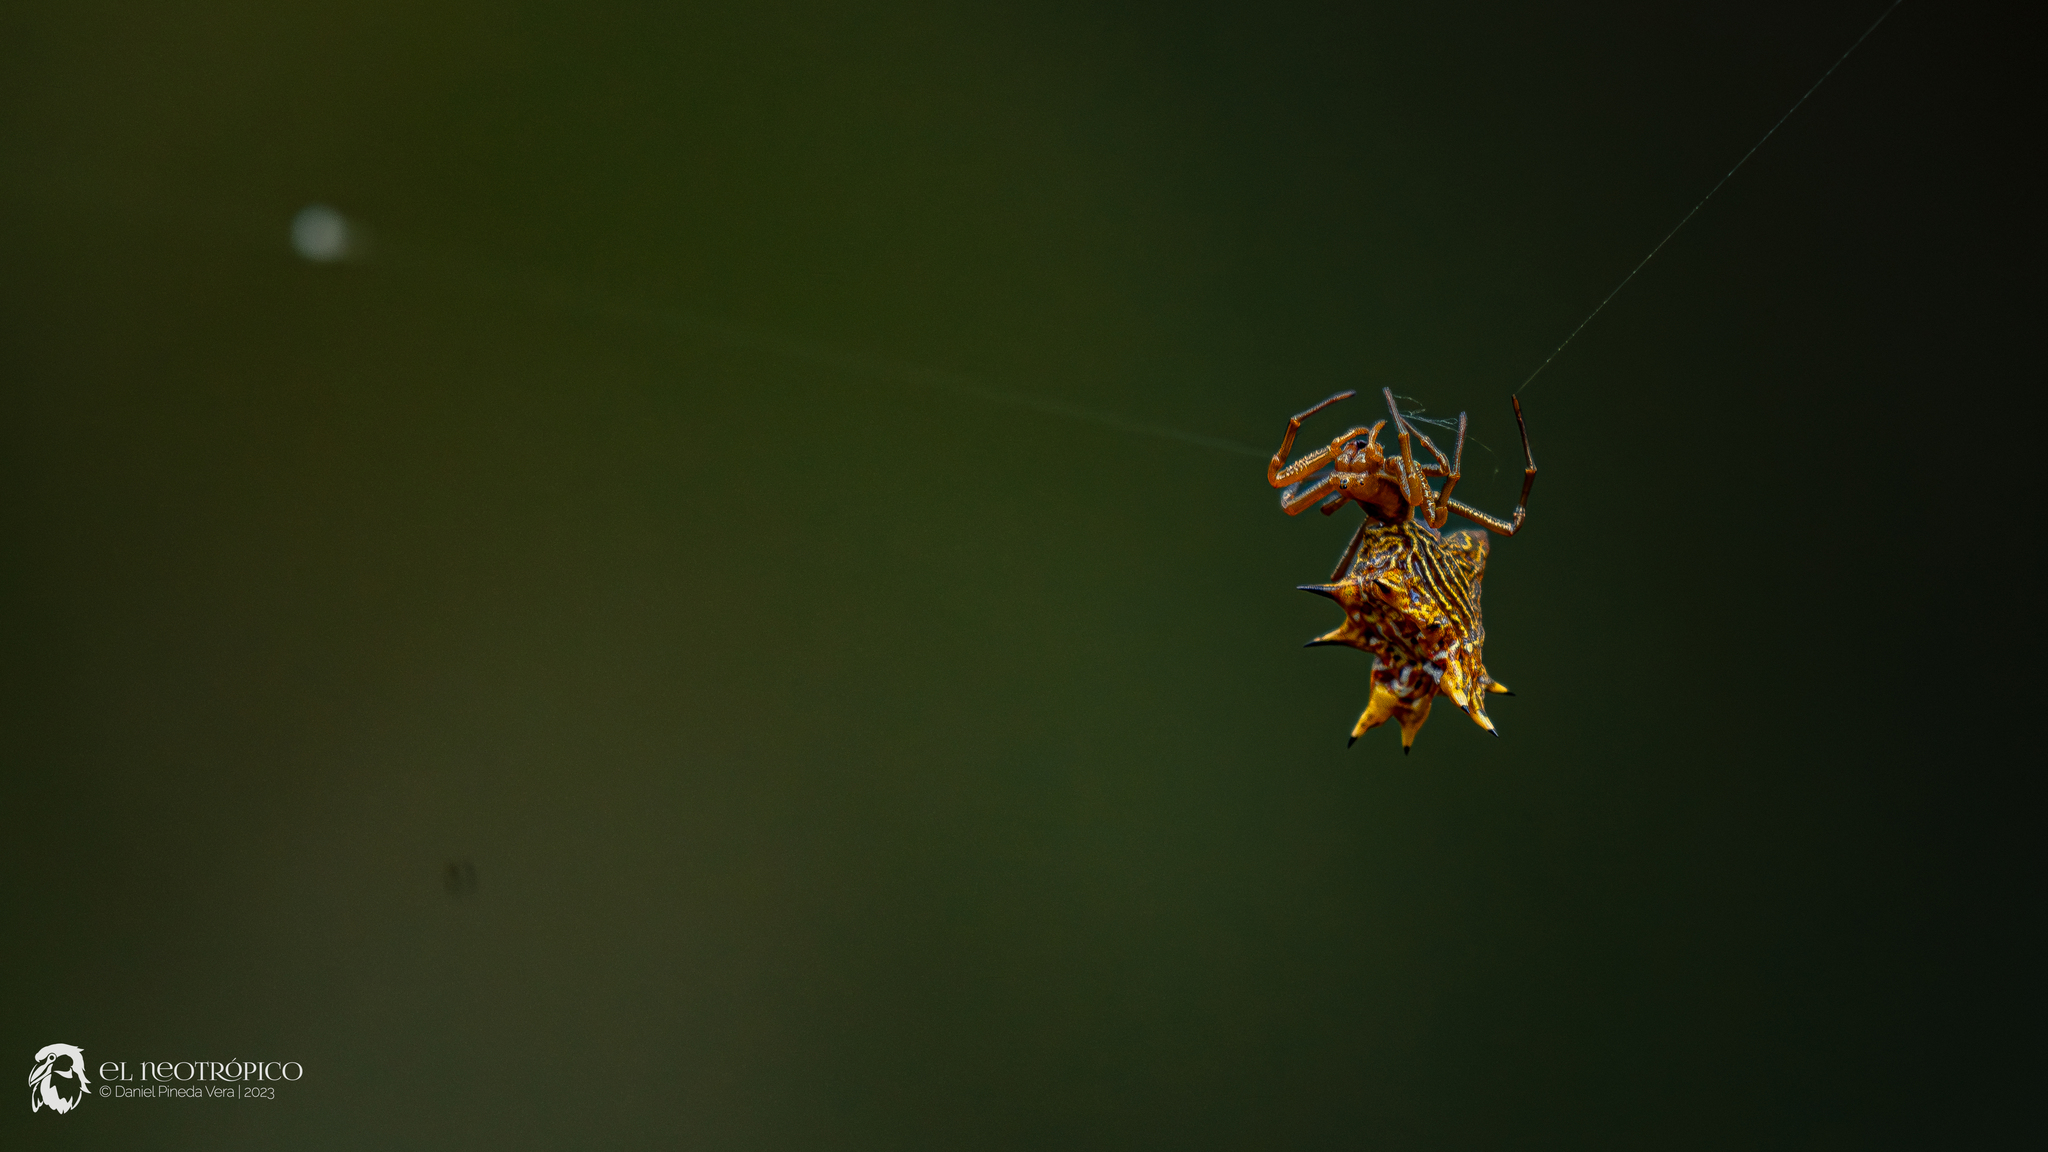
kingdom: Animalia
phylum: Arthropoda
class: Arachnida
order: Araneae
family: Araneidae
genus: Micrathena
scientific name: Micrathena gracilis
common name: Orb weavers
